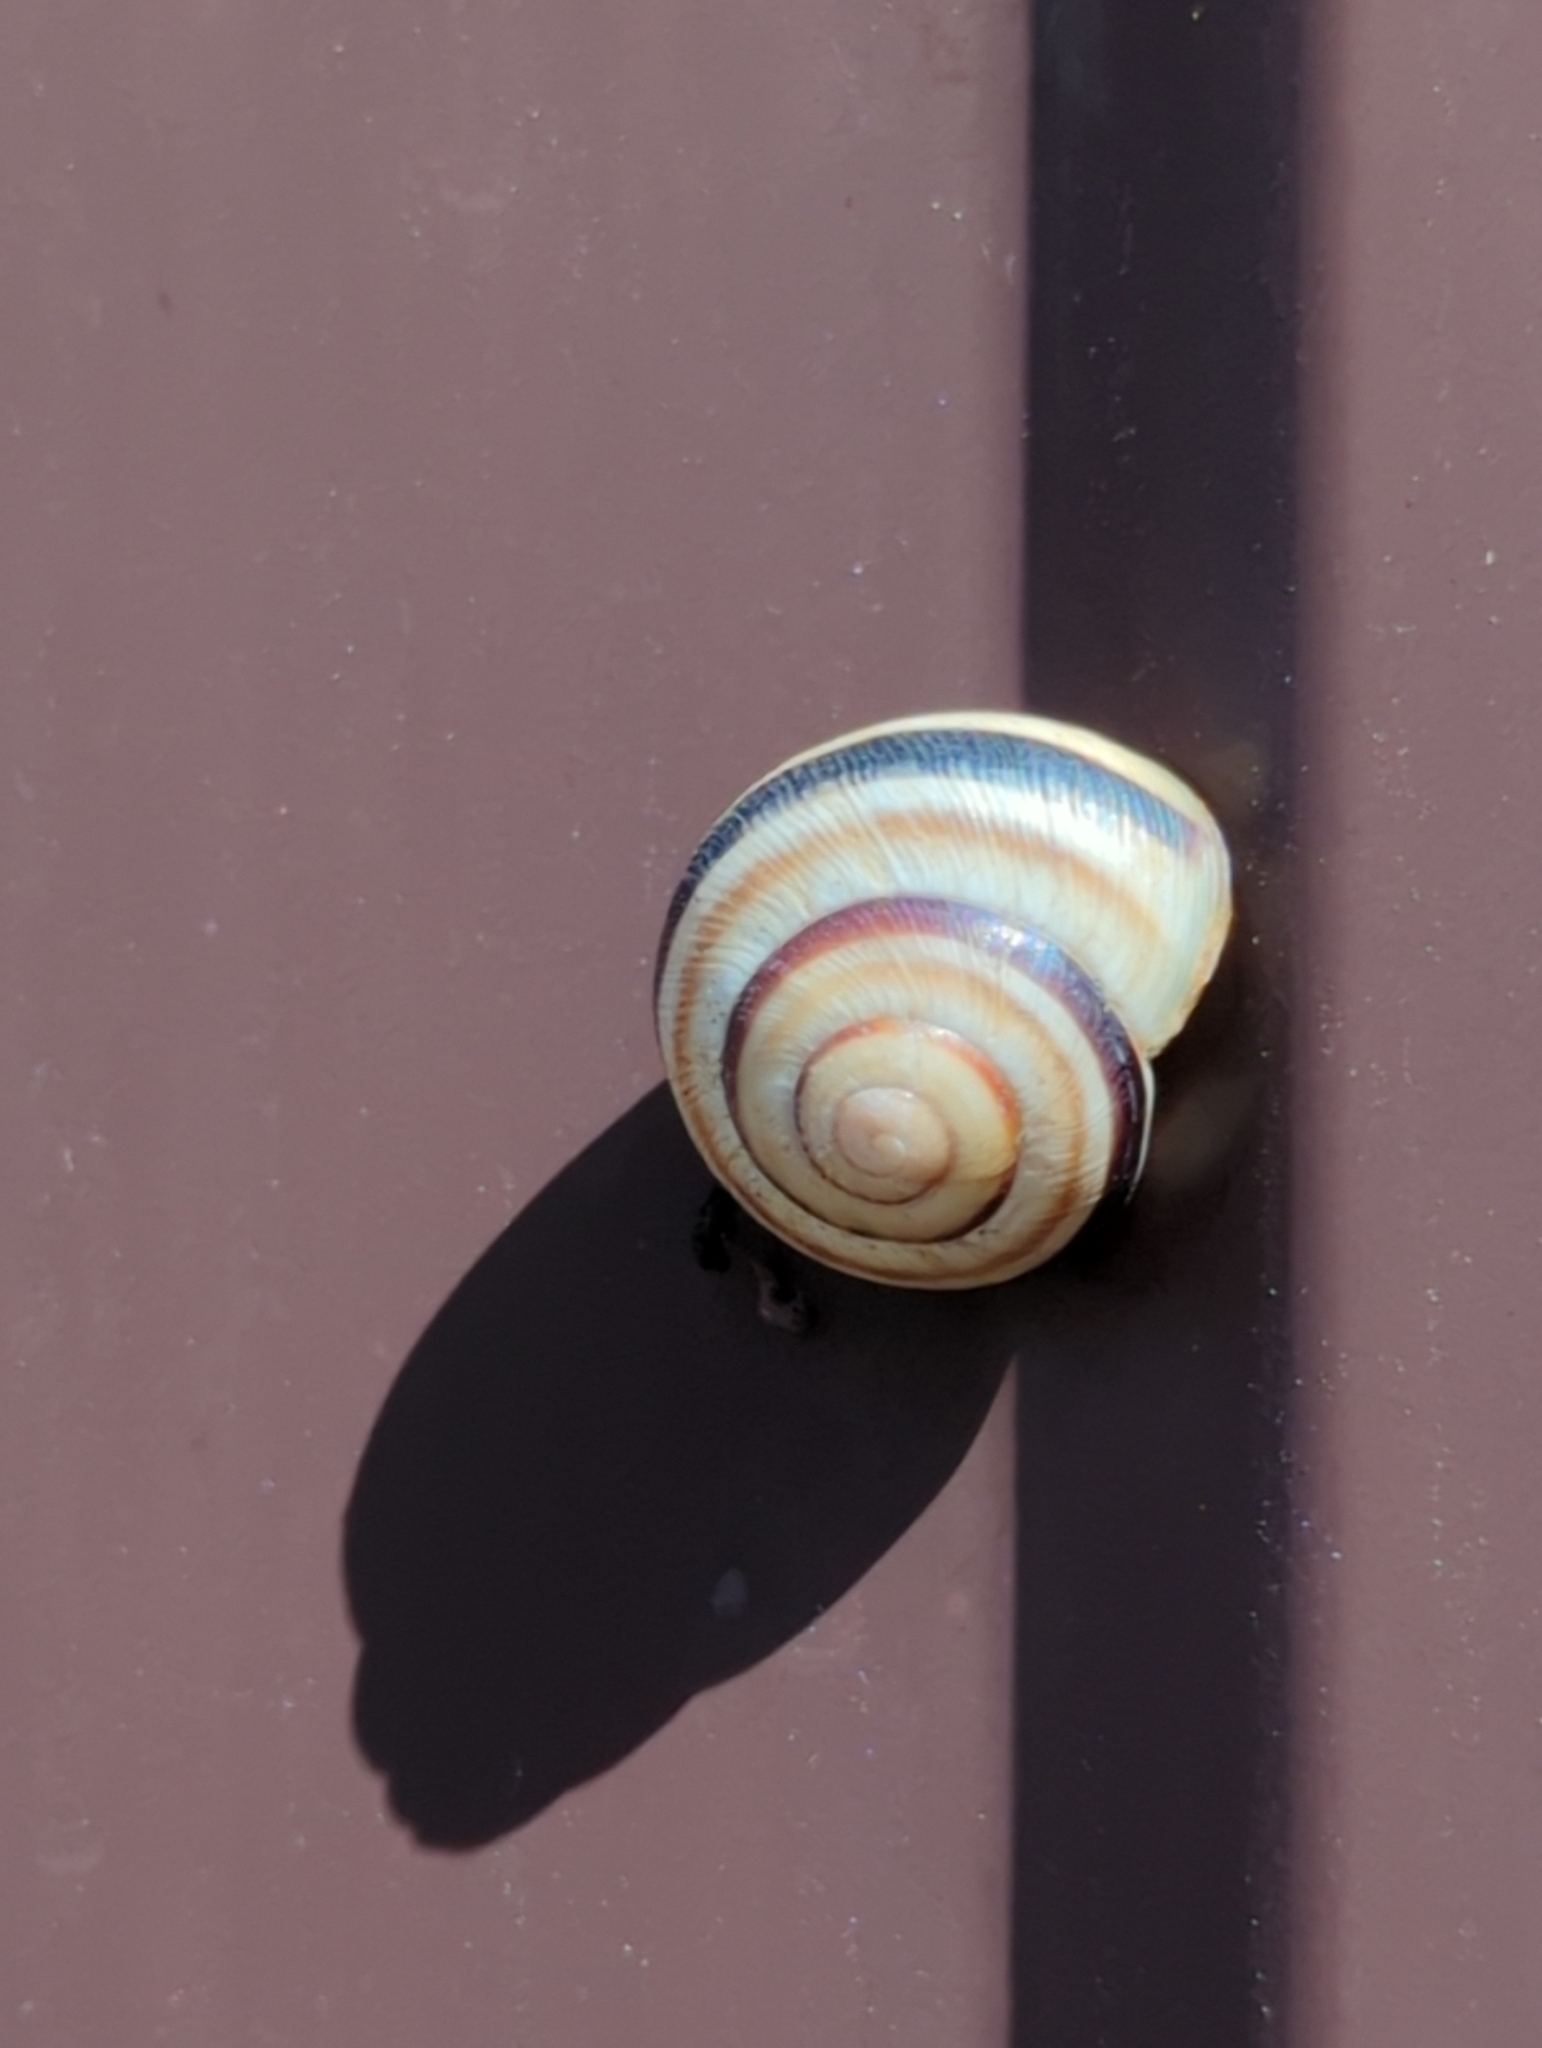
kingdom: Animalia
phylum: Mollusca
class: Gastropoda
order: Stylommatophora
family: Helicidae
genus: Caucasotachea
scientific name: Caucasotachea vindobonensis
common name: European helicid land snail
